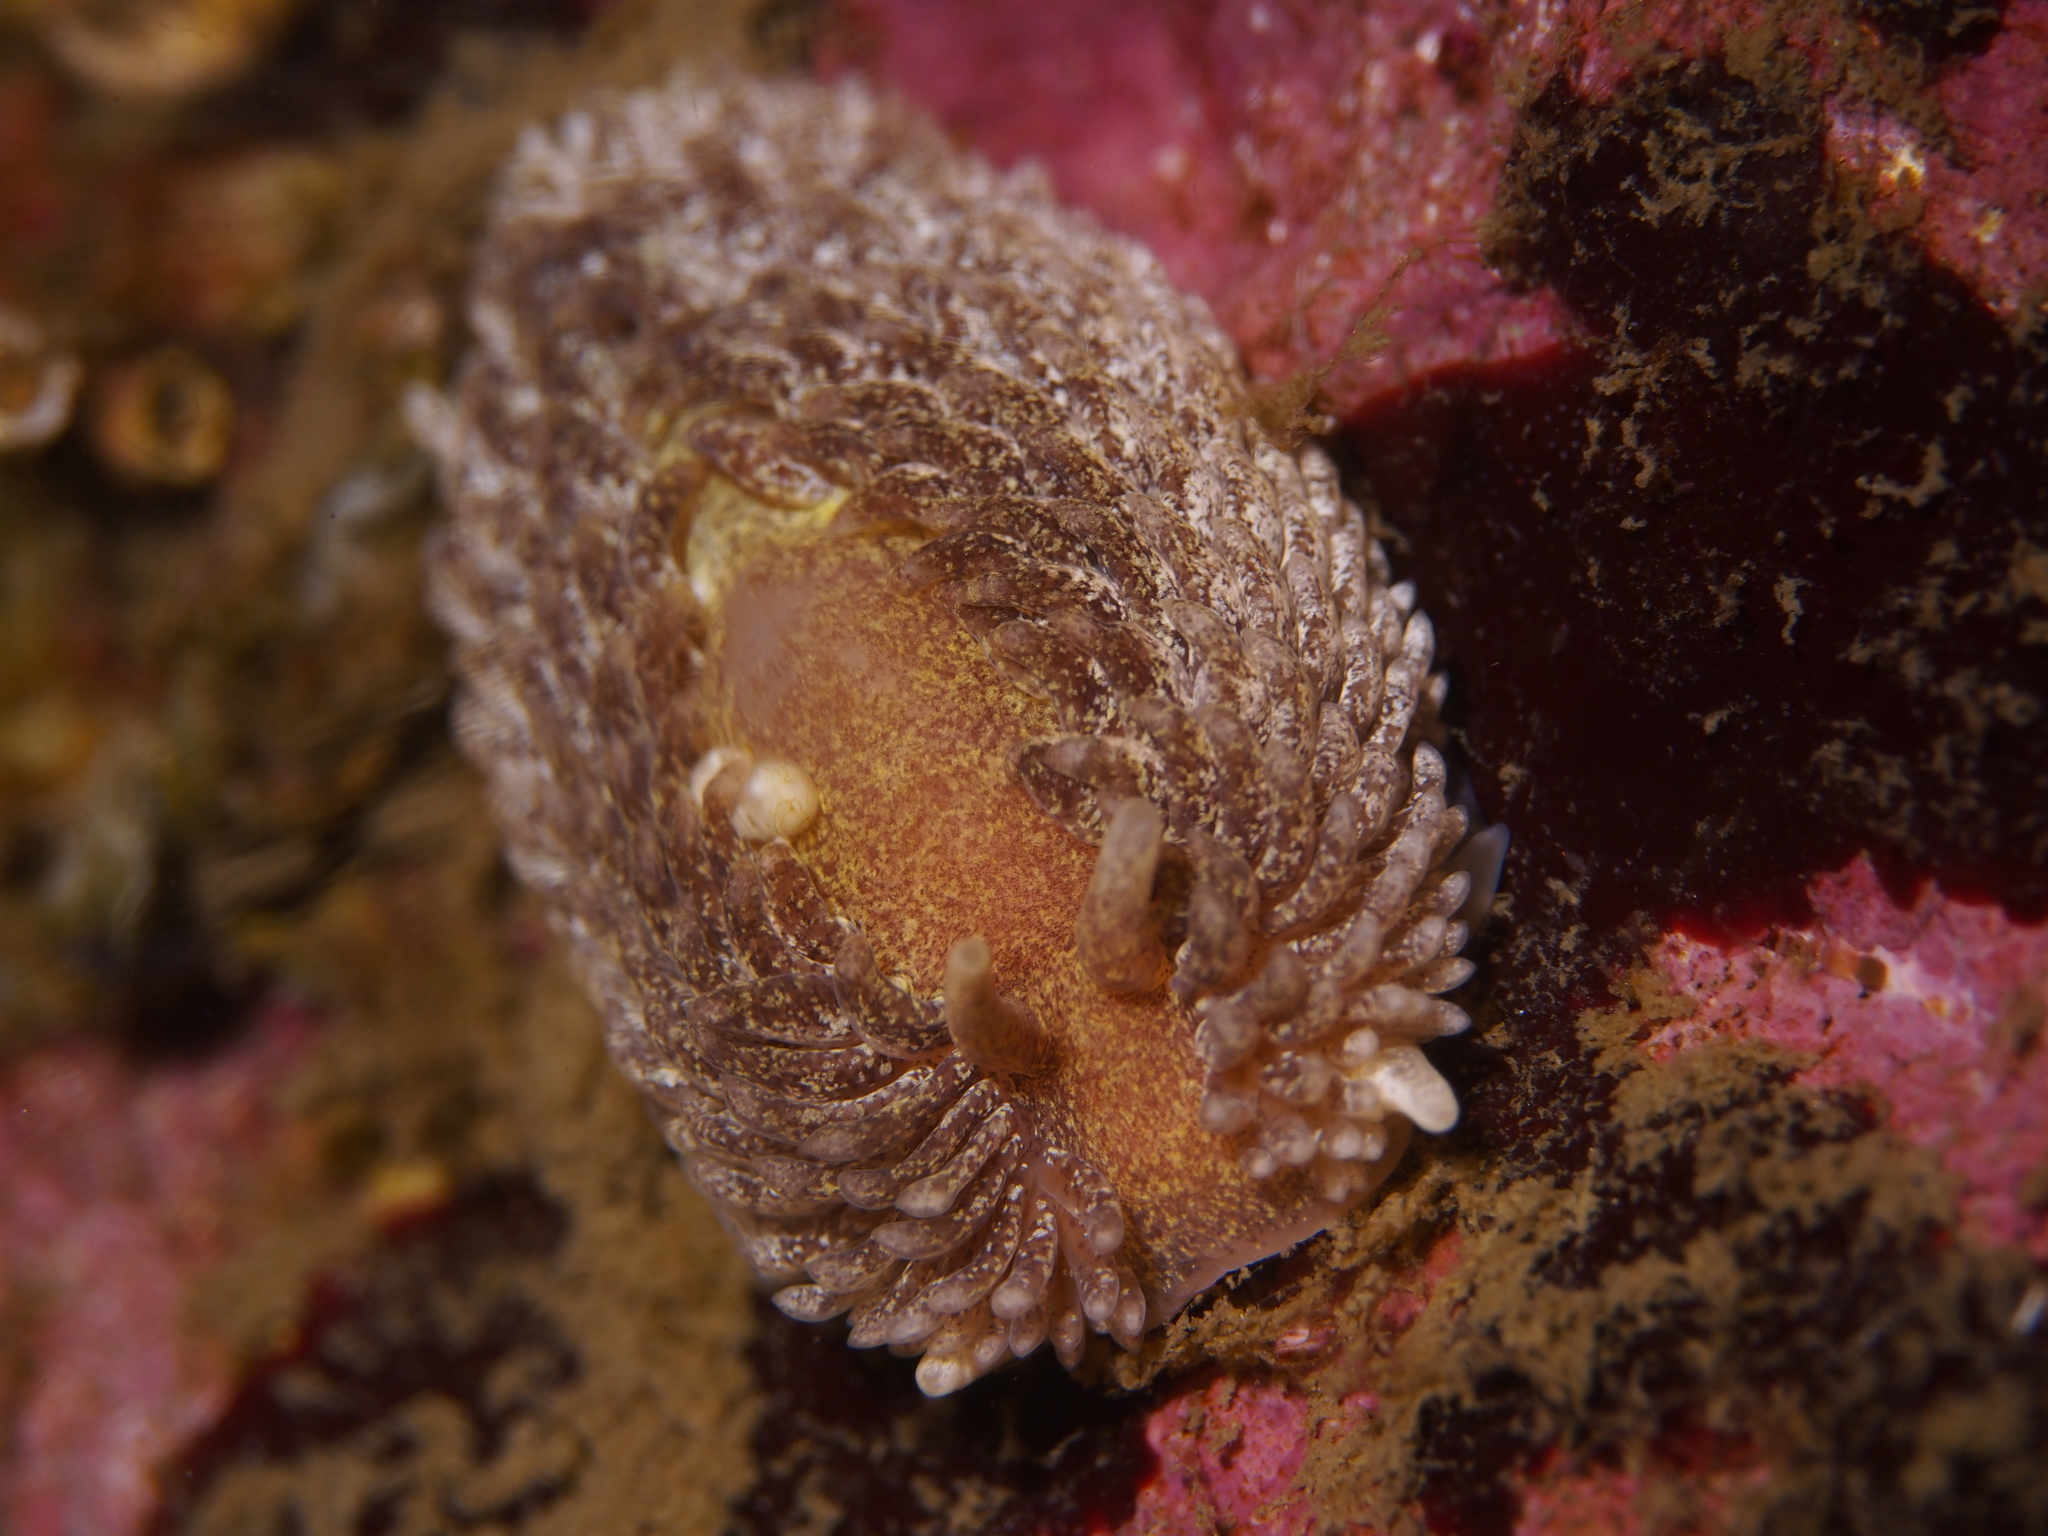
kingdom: Animalia
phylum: Mollusca
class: Gastropoda
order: Nudibranchia
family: Aeolidiidae
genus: Aeolidia
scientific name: Aeolidia papillosa
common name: Common grey sea slug
